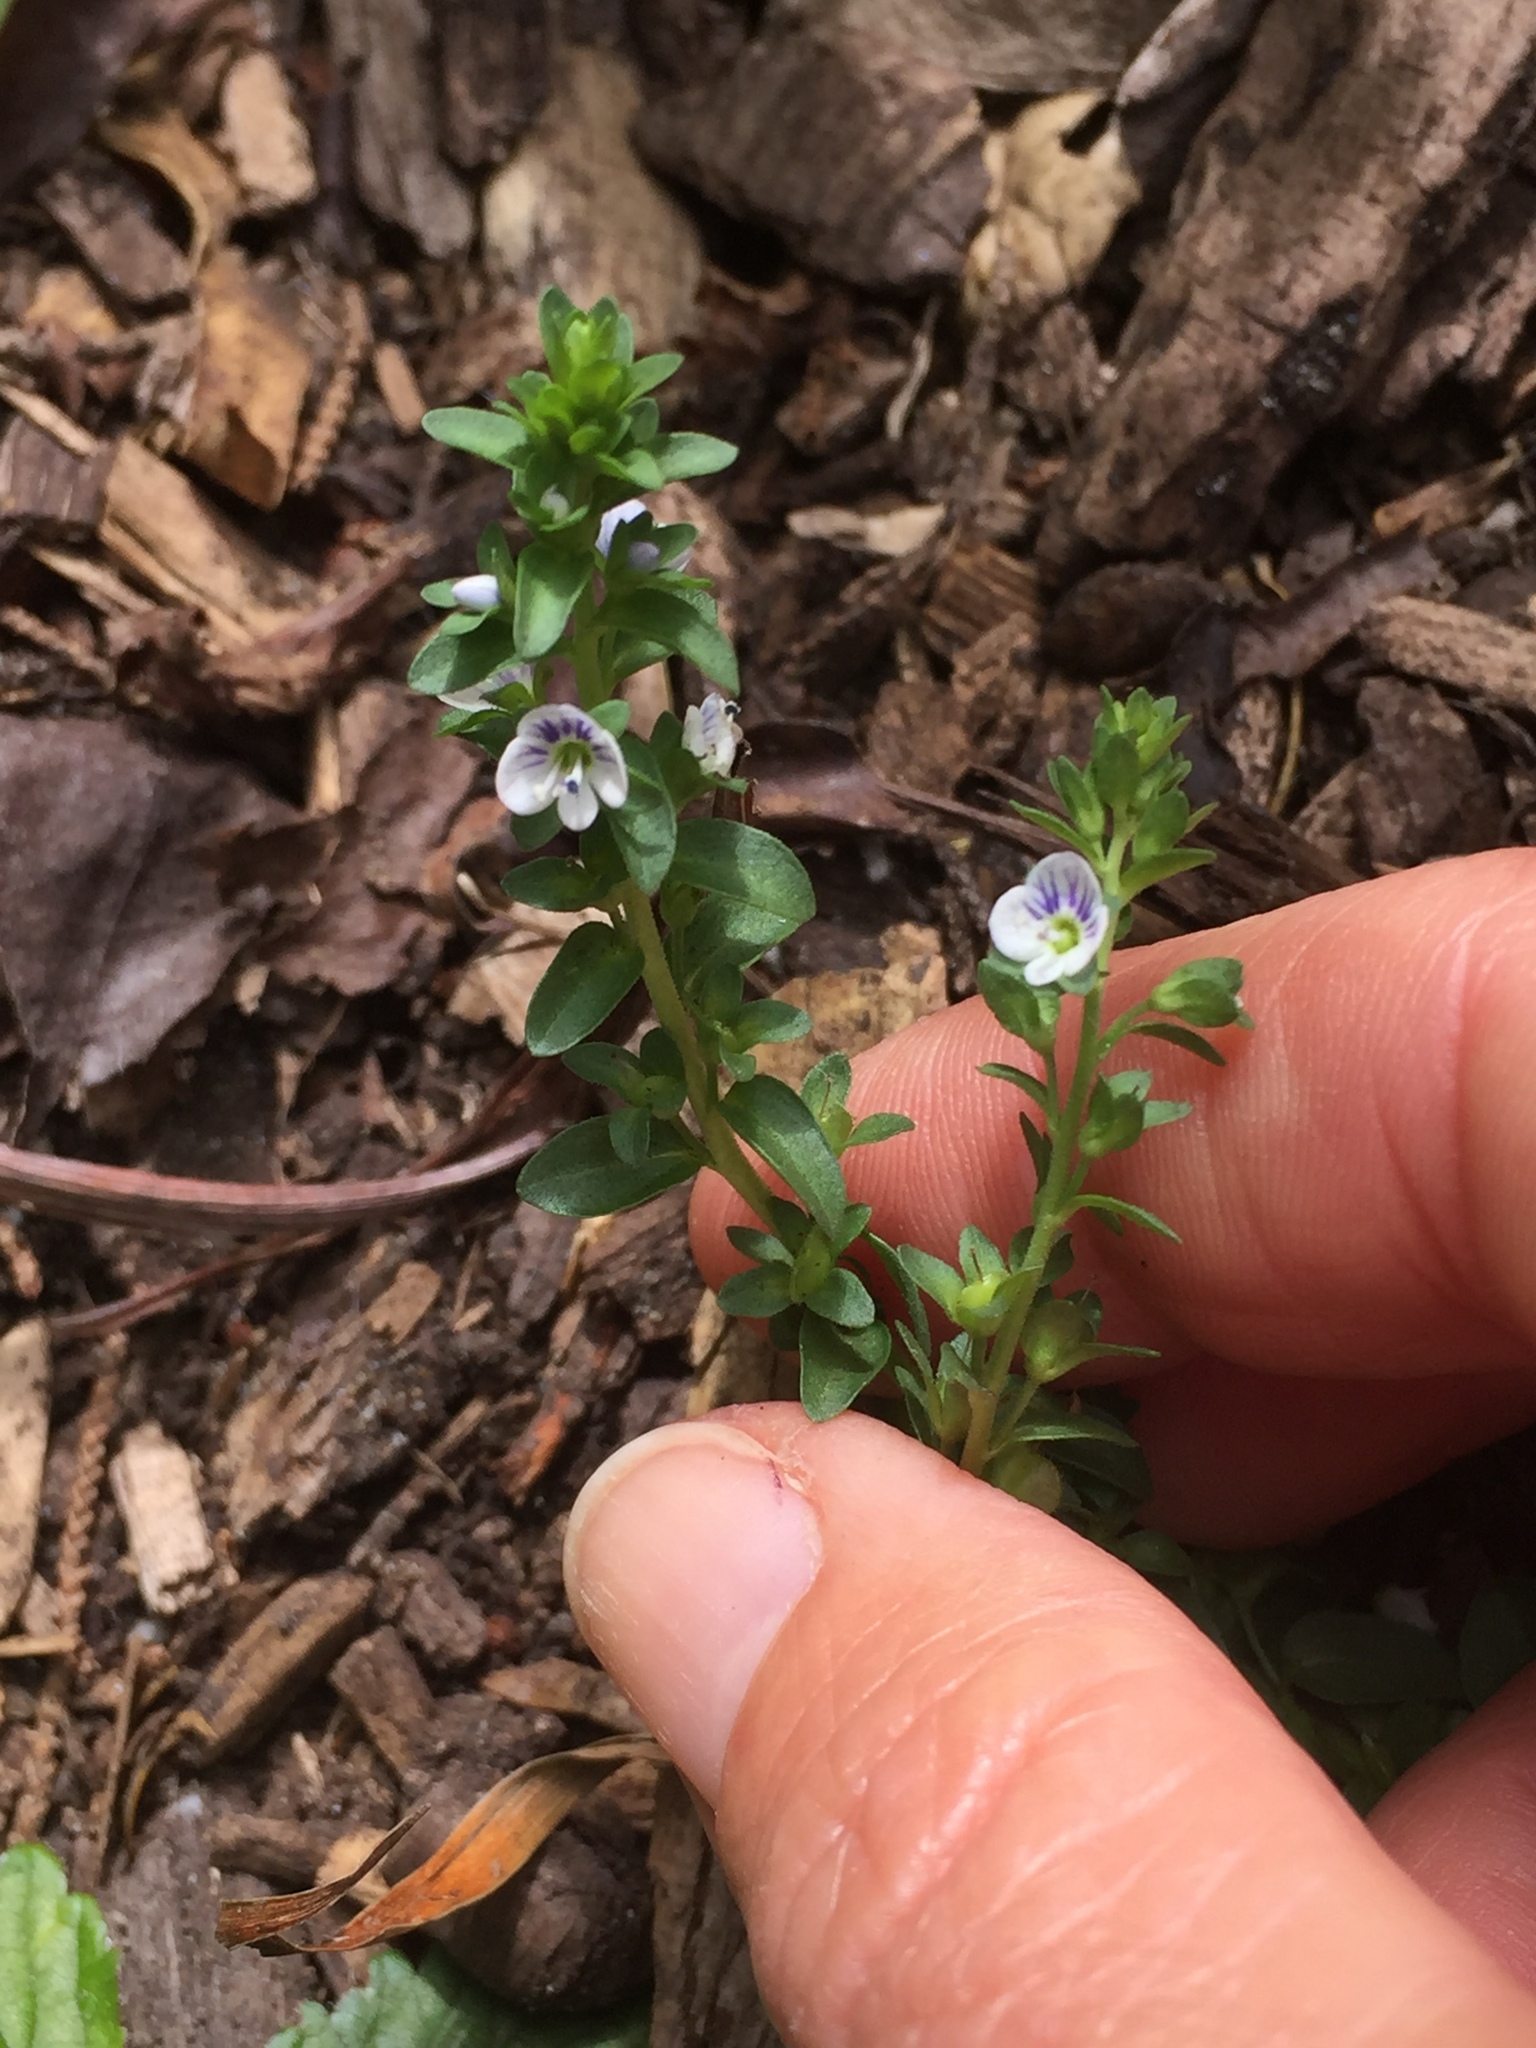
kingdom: Plantae
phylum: Tracheophyta
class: Magnoliopsida
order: Lamiales
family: Plantaginaceae
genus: Veronica
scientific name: Veronica serpyllifolia
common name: Thyme-leaved speedwell
